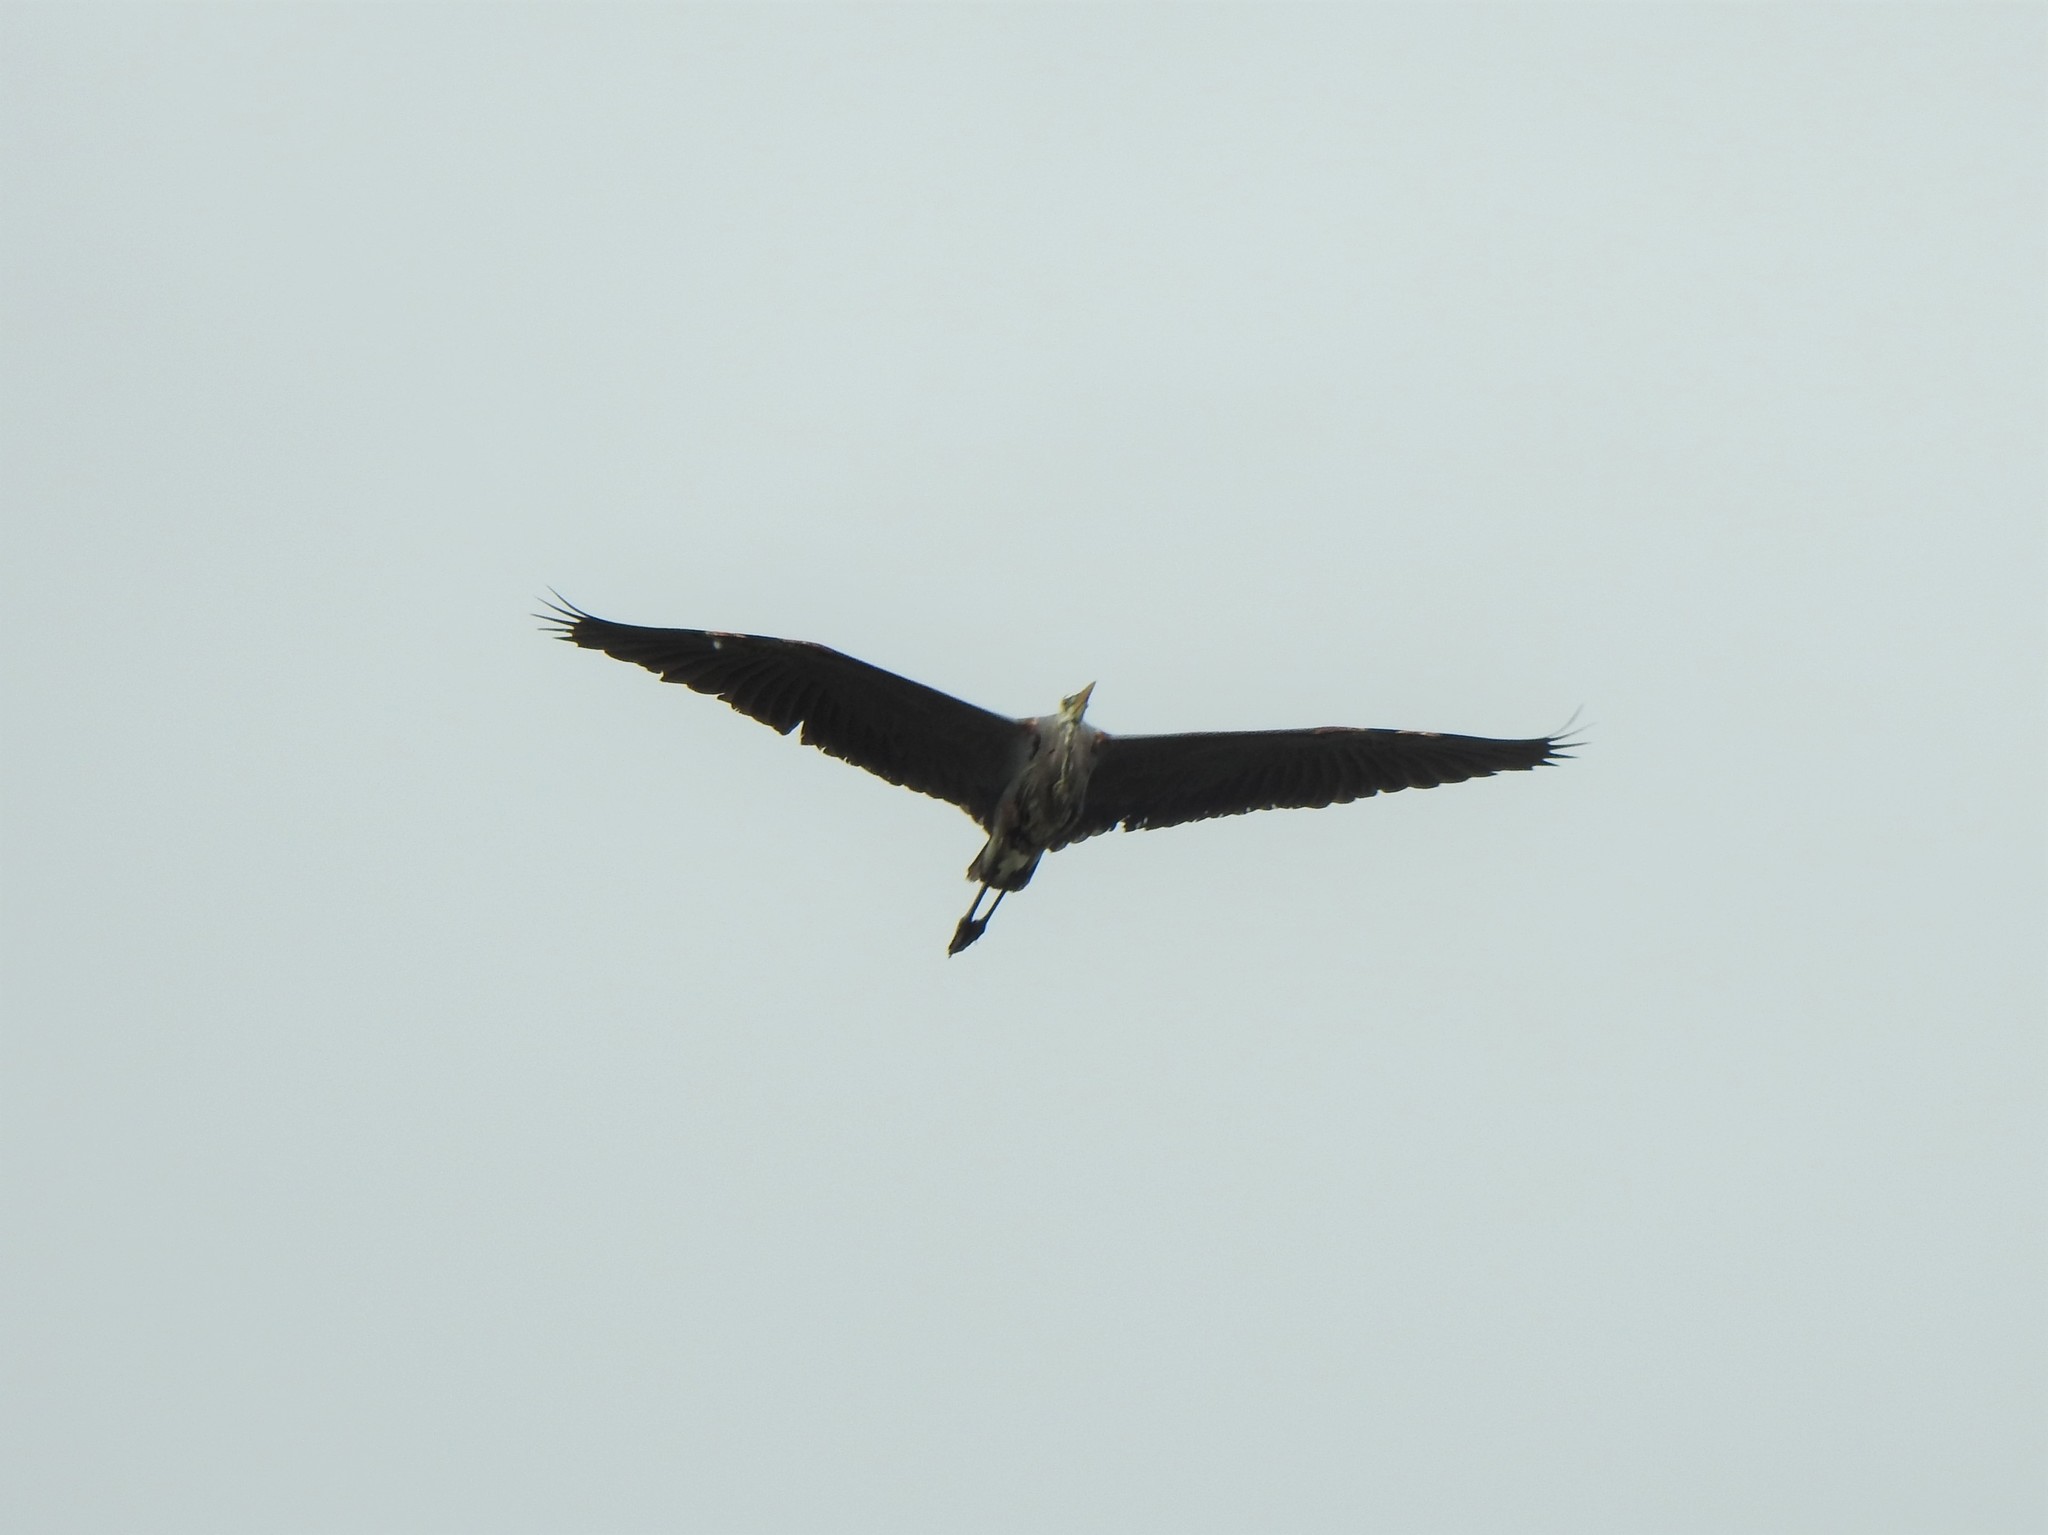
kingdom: Animalia
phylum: Chordata
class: Aves
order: Pelecaniformes
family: Ardeidae
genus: Ardea
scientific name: Ardea herodias
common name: Great blue heron
